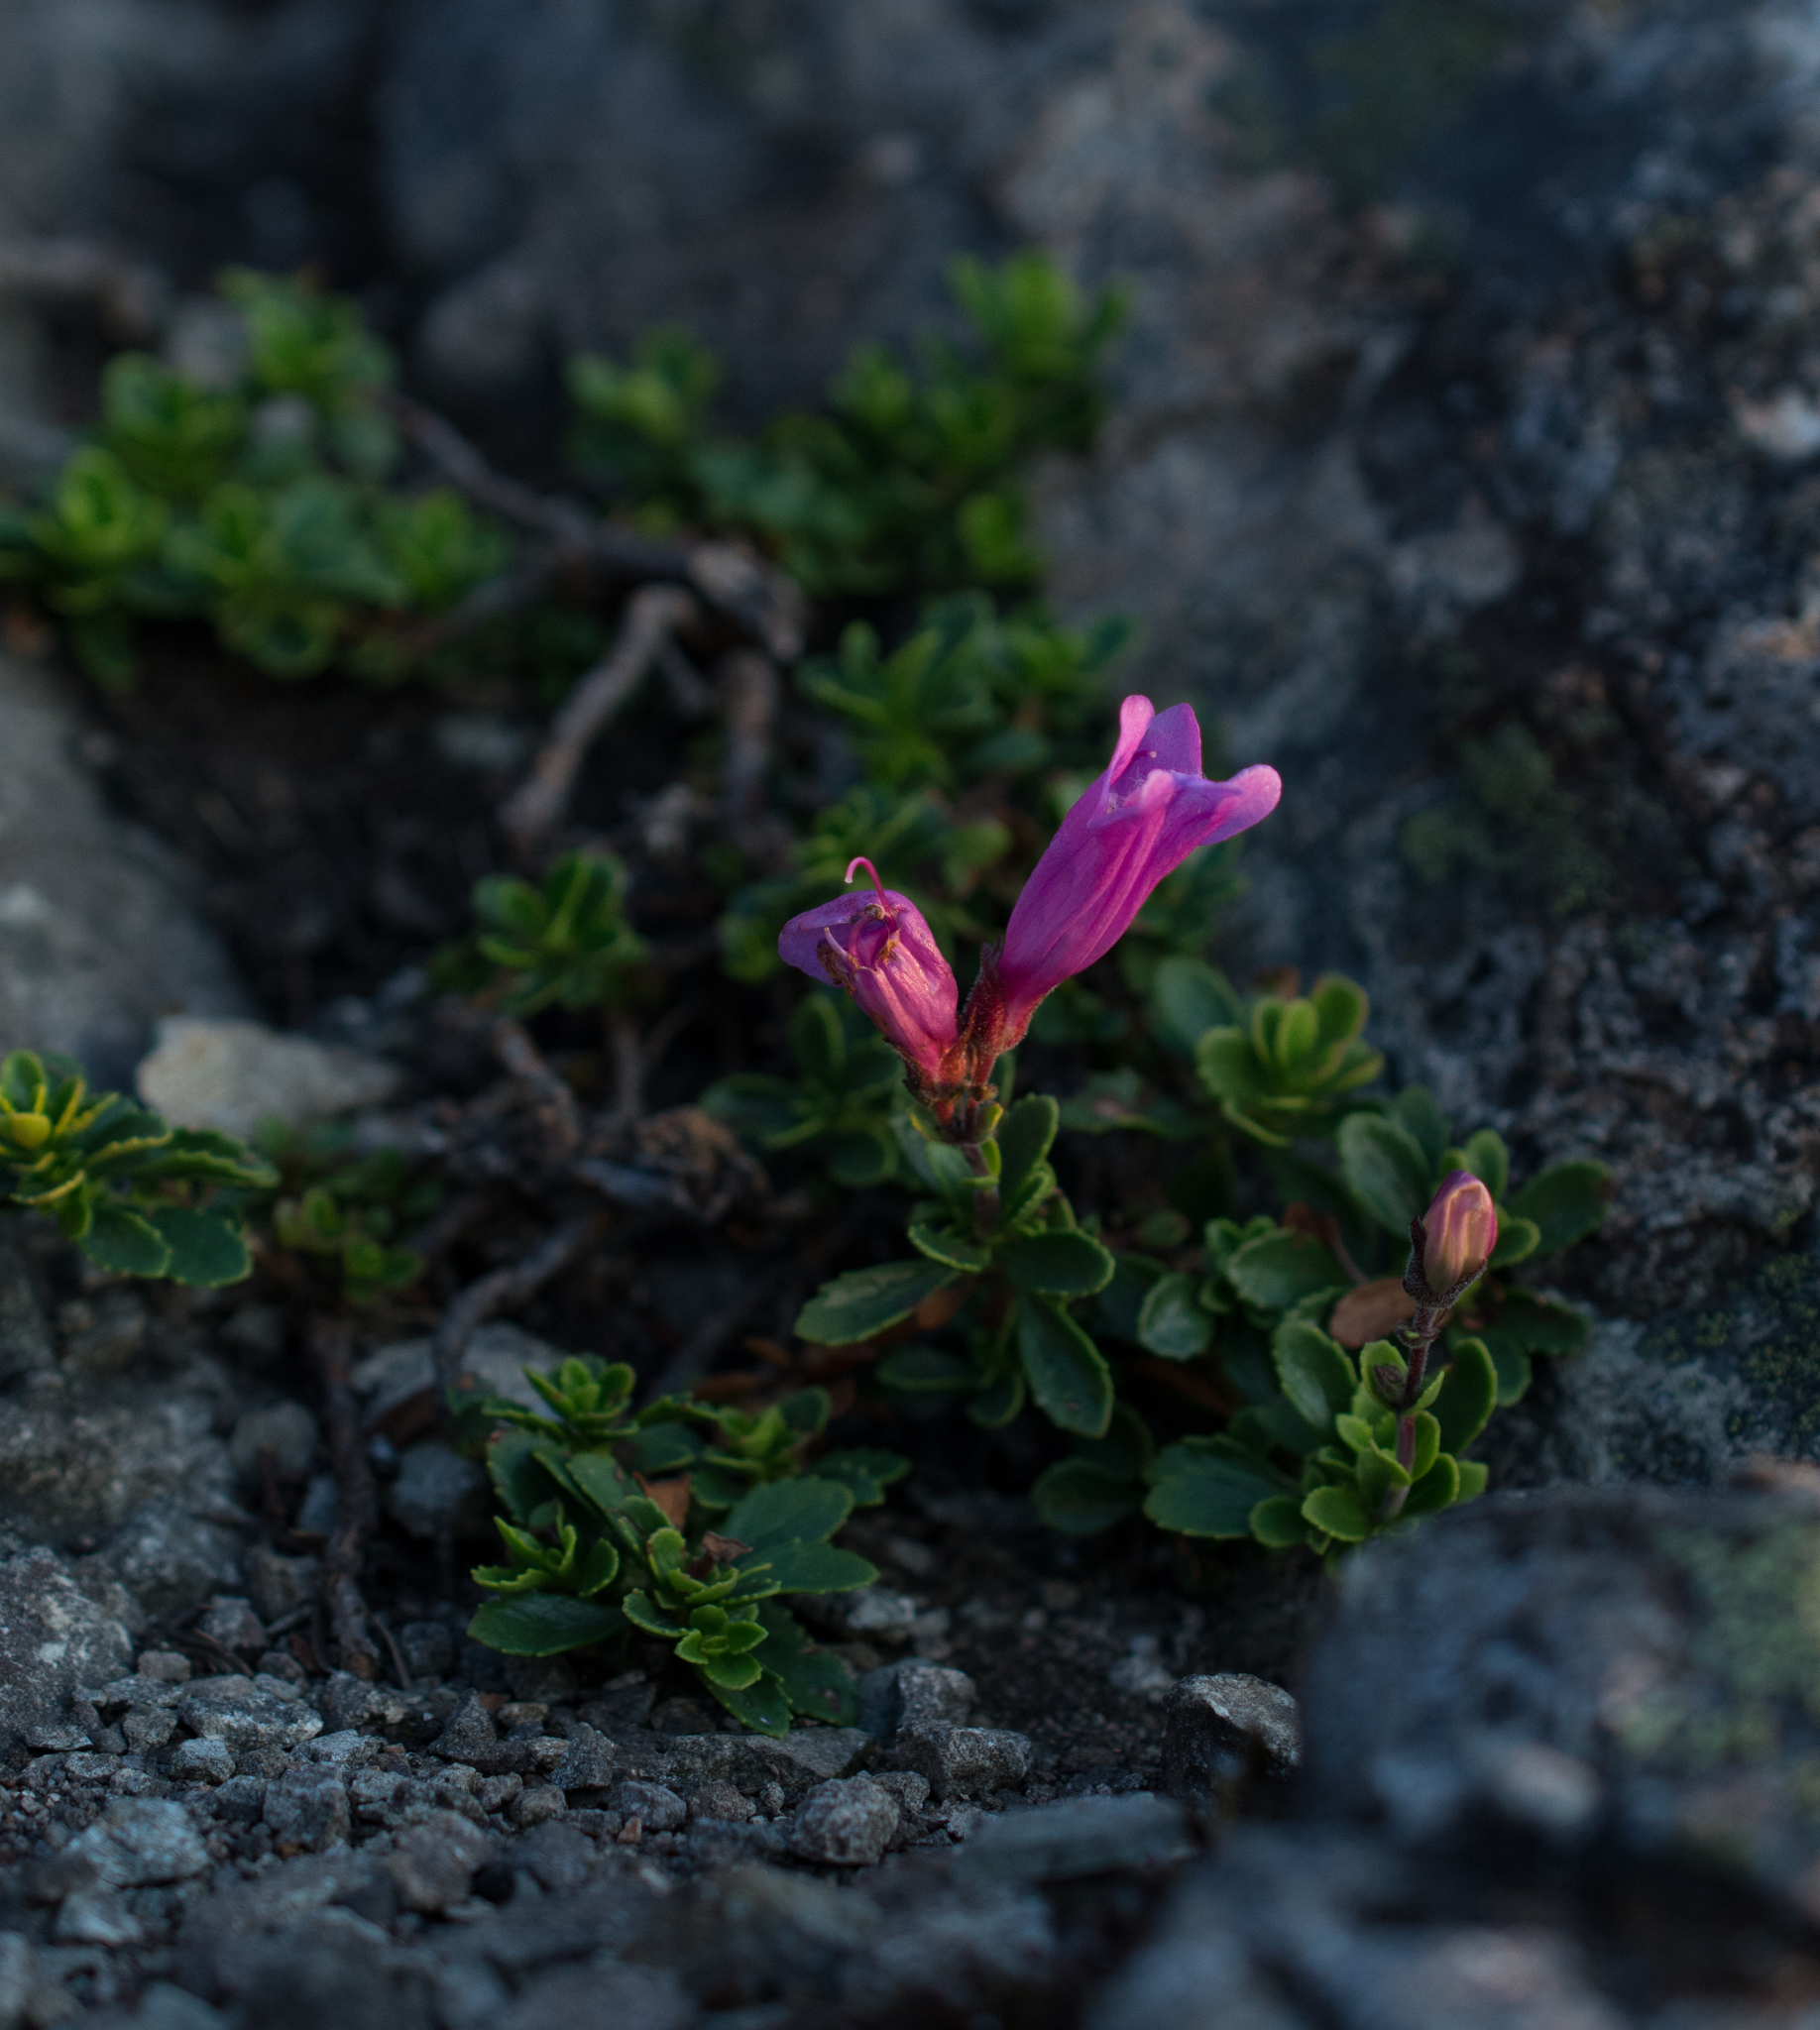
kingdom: Plantae
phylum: Tracheophyta
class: Magnoliopsida
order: Lamiales
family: Plantaginaceae
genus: Penstemon
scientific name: Penstemon davidsonii
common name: Davidson's penstemon
